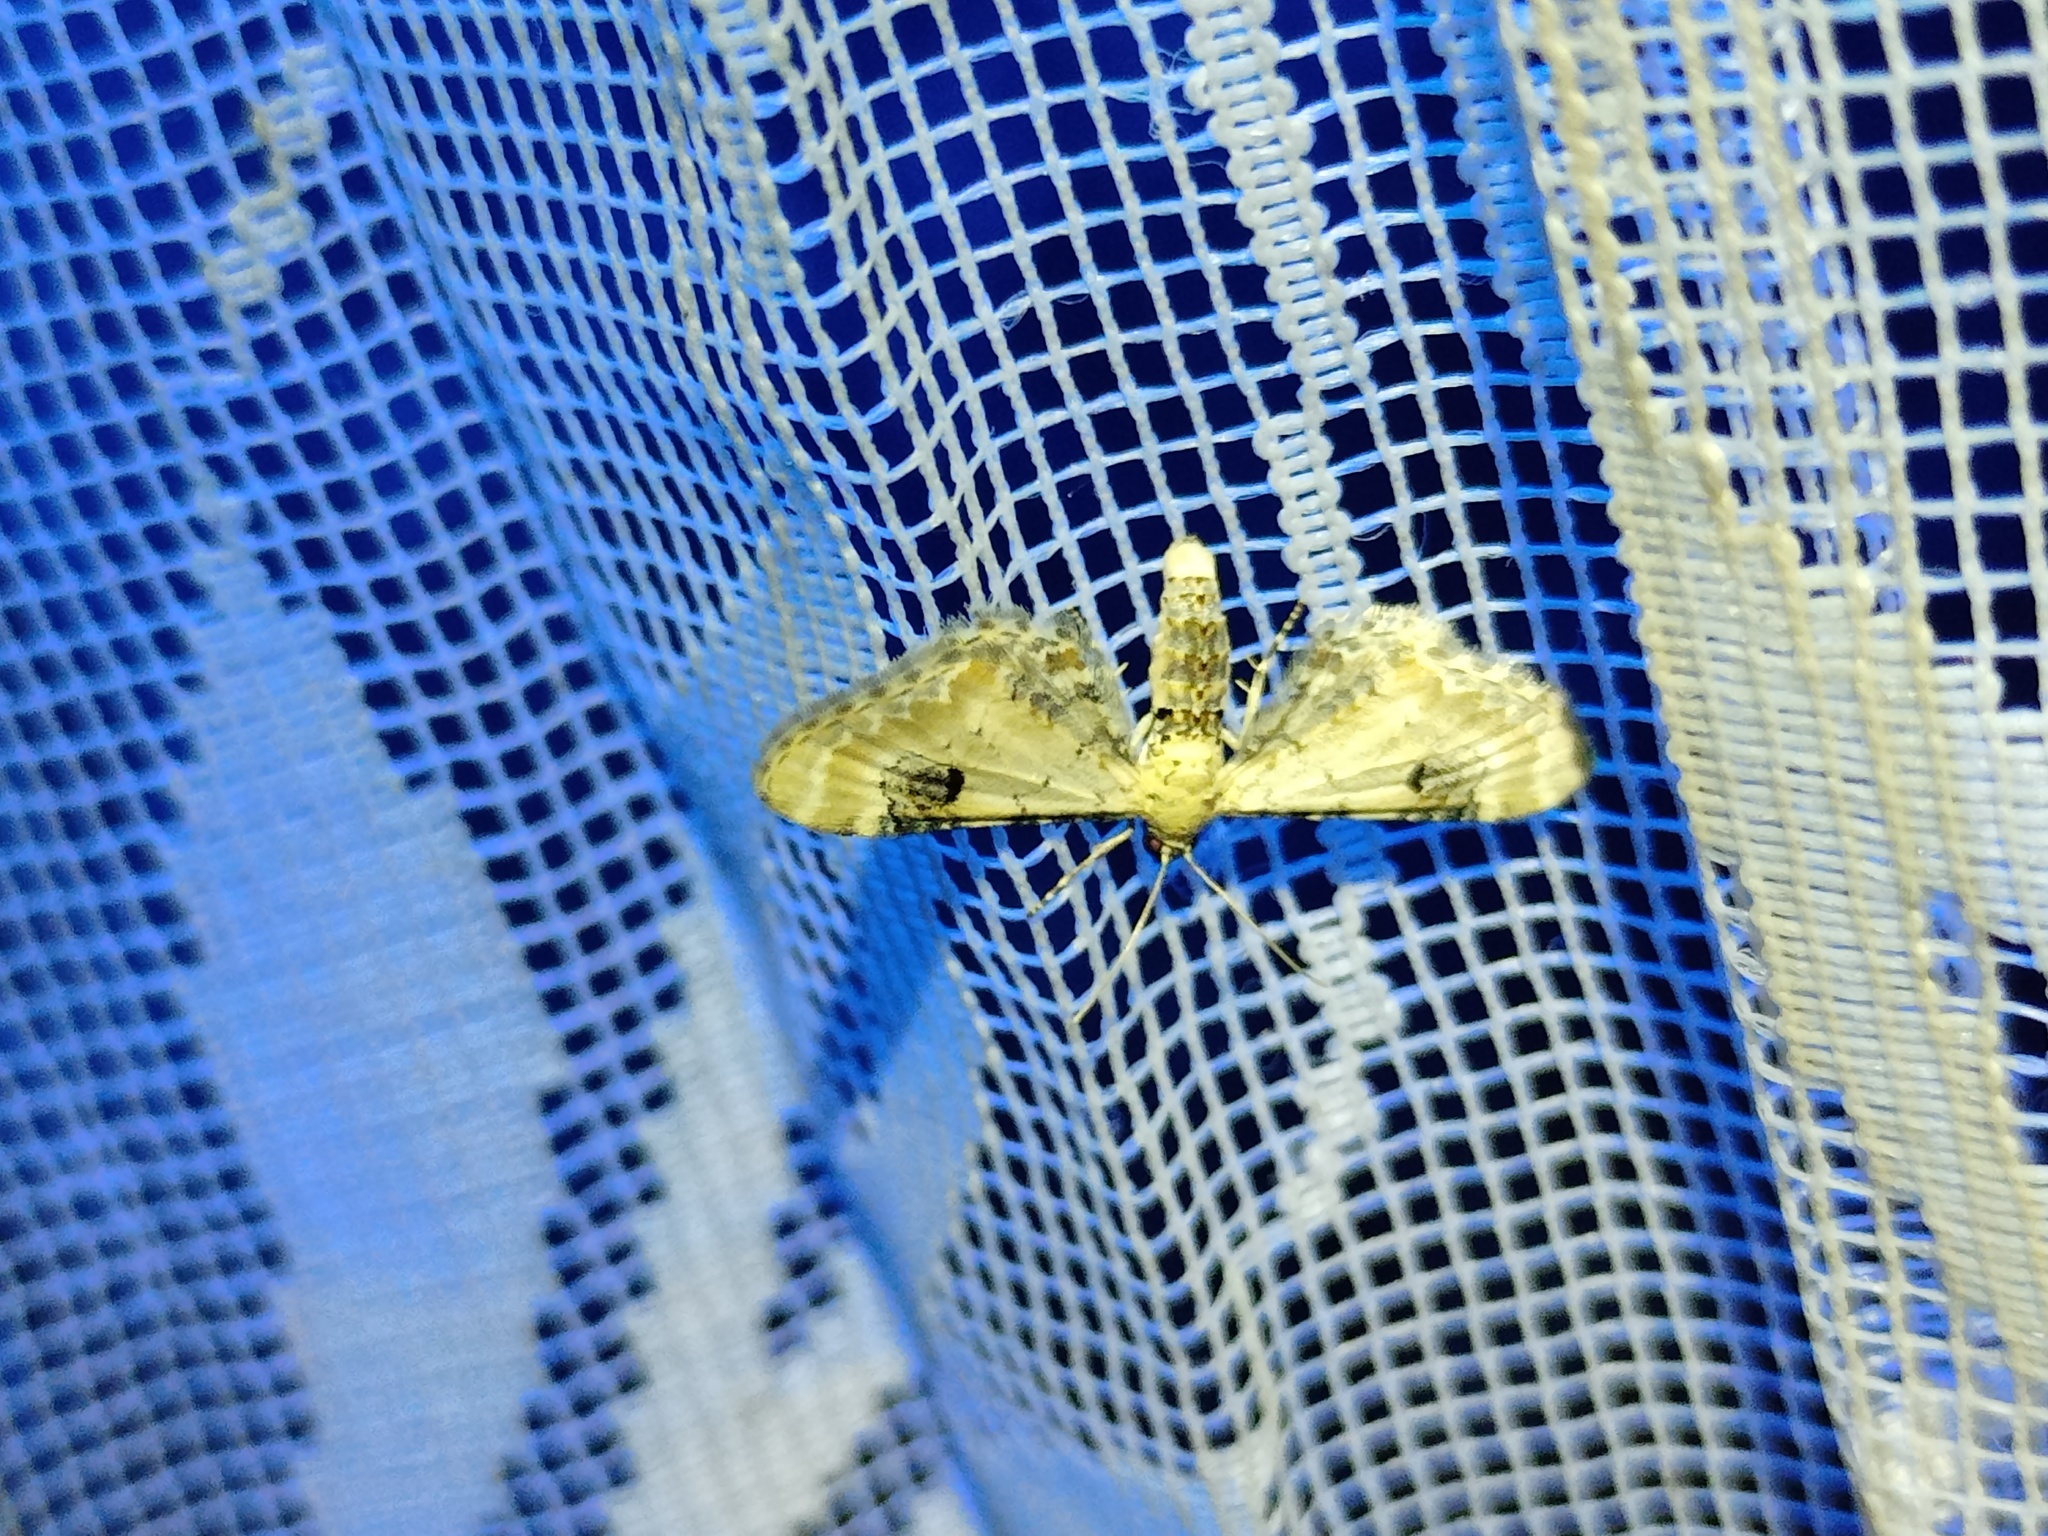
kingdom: Animalia
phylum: Arthropoda
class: Insecta
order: Lepidoptera
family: Geometridae
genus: Eupithecia
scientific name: Eupithecia centaureata
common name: Lime-speck pug
